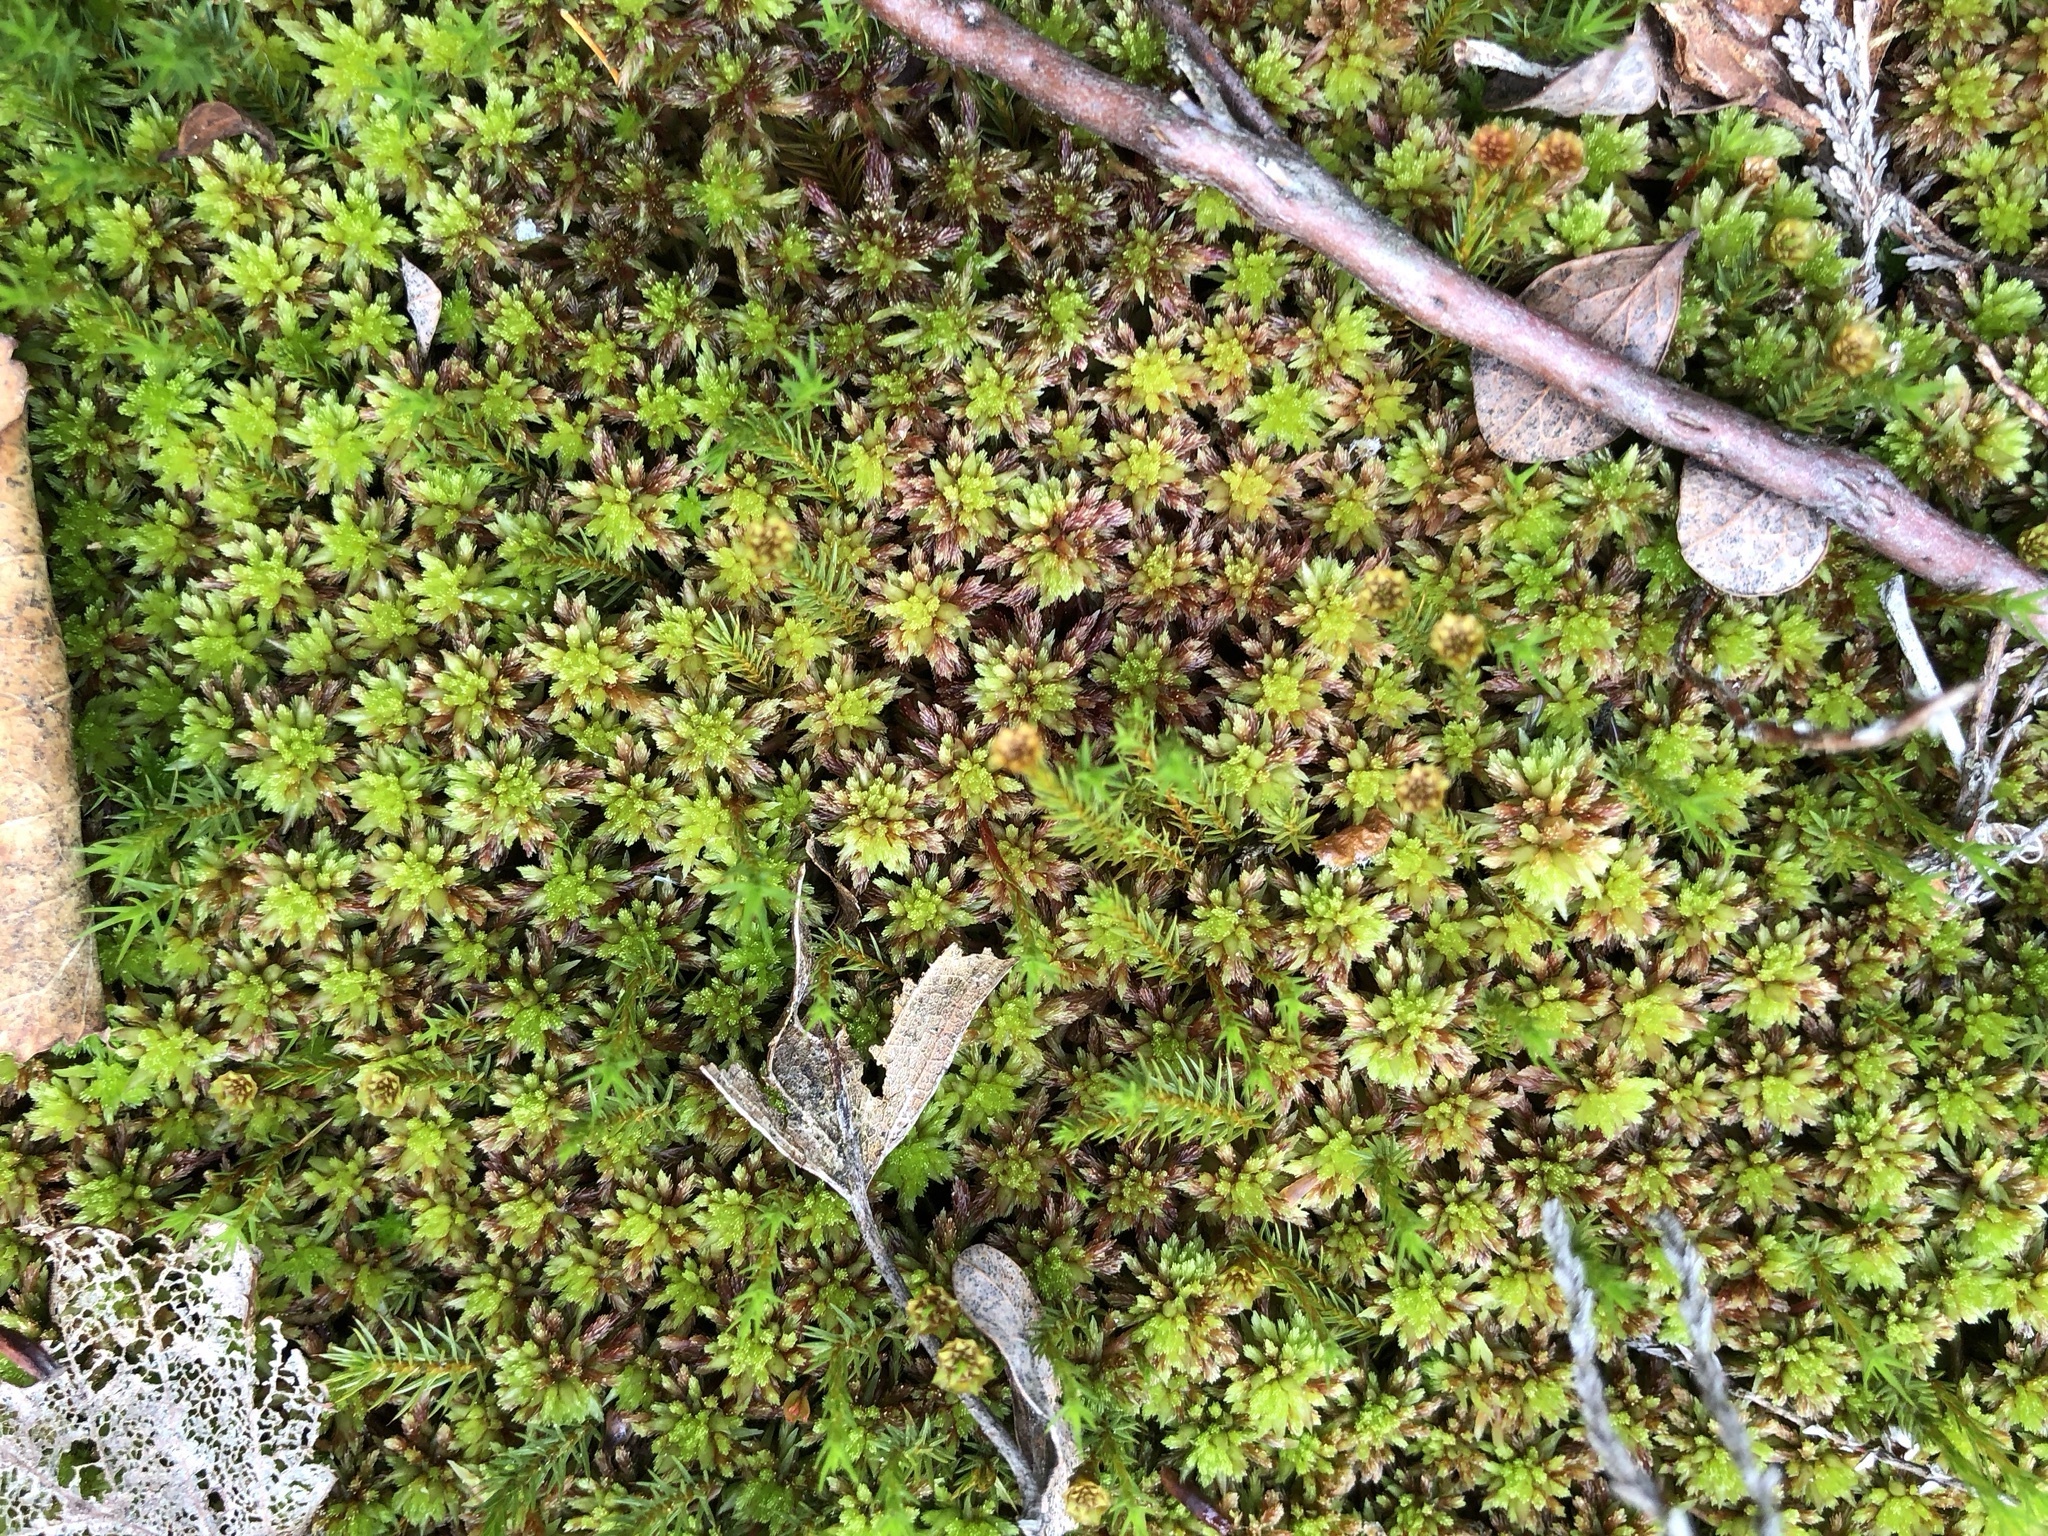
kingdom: Plantae
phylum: Bryophyta
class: Sphagnopsida
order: Sphagnales
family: Sphagnaceae
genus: Sphagnum
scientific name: Sphagnum subnitens
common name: Lustrous bog-moss
